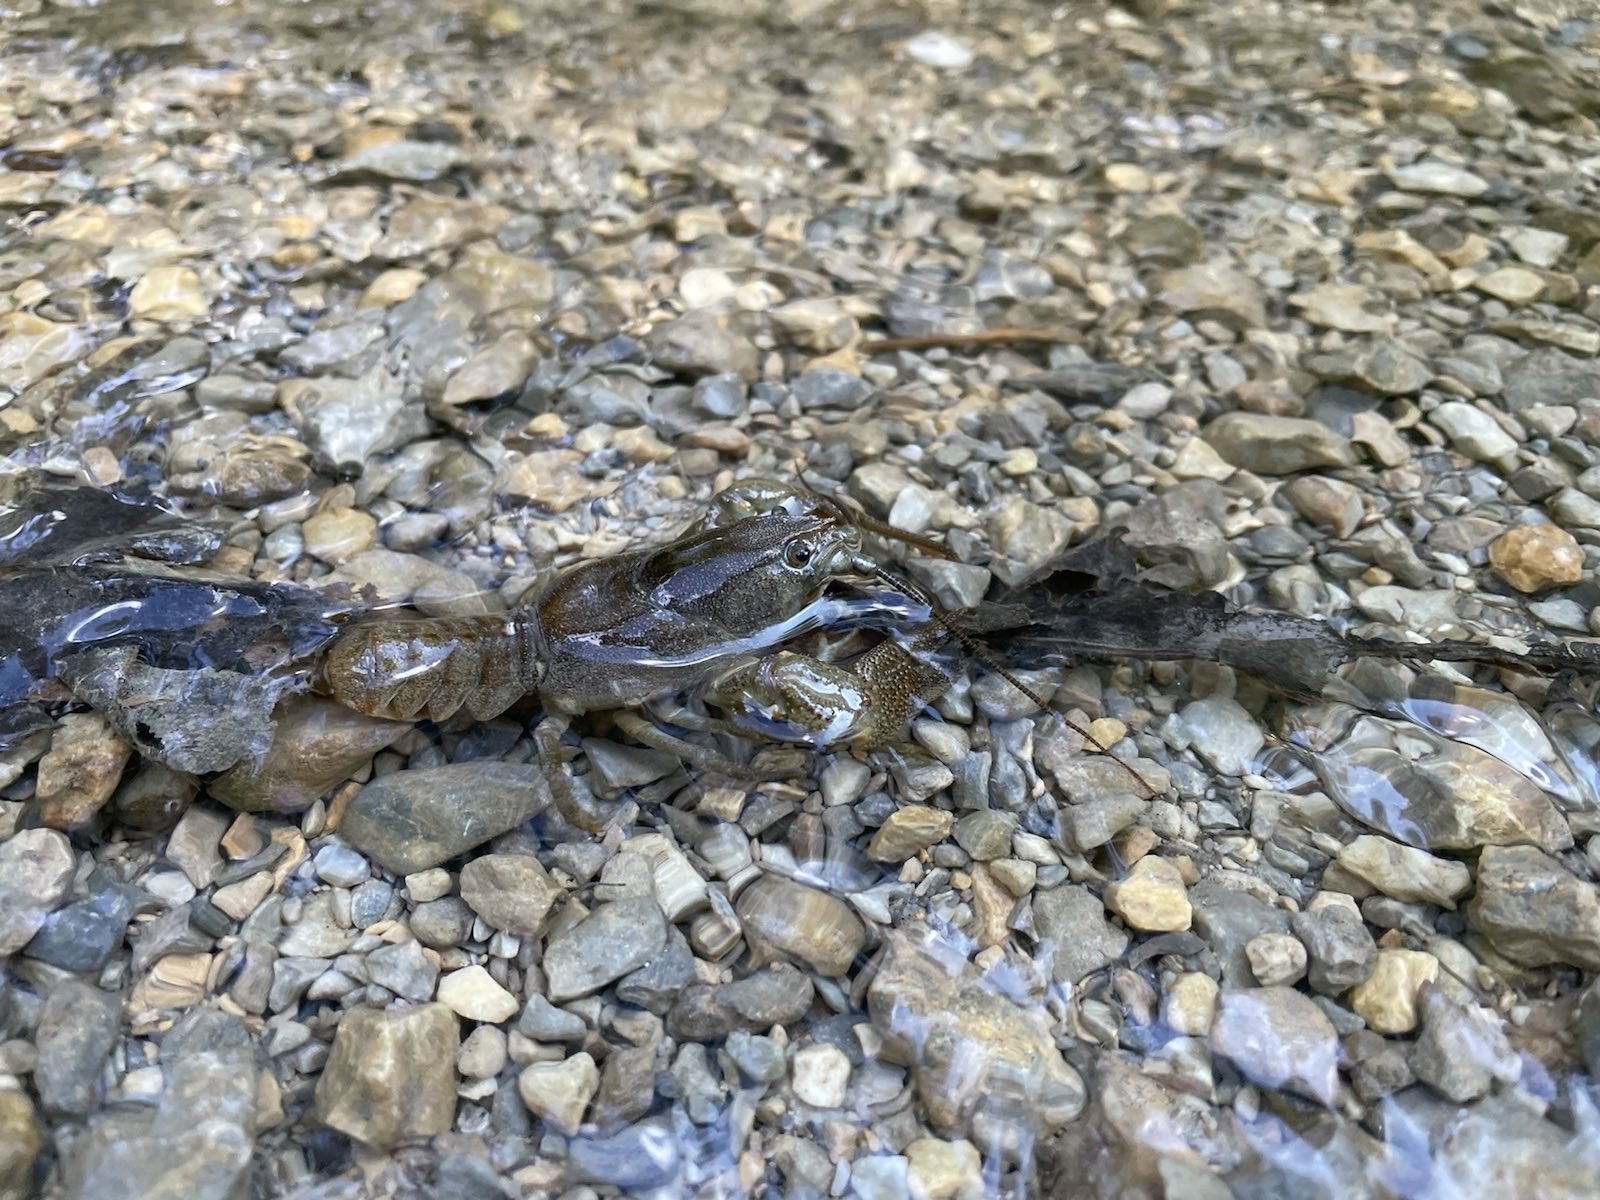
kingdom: Animalia
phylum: Arthropoda
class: Malacostraca
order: Decapoda
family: Astacidae
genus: Austropotamobius
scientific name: Austropotamobius torrentium
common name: Stone crayfish
